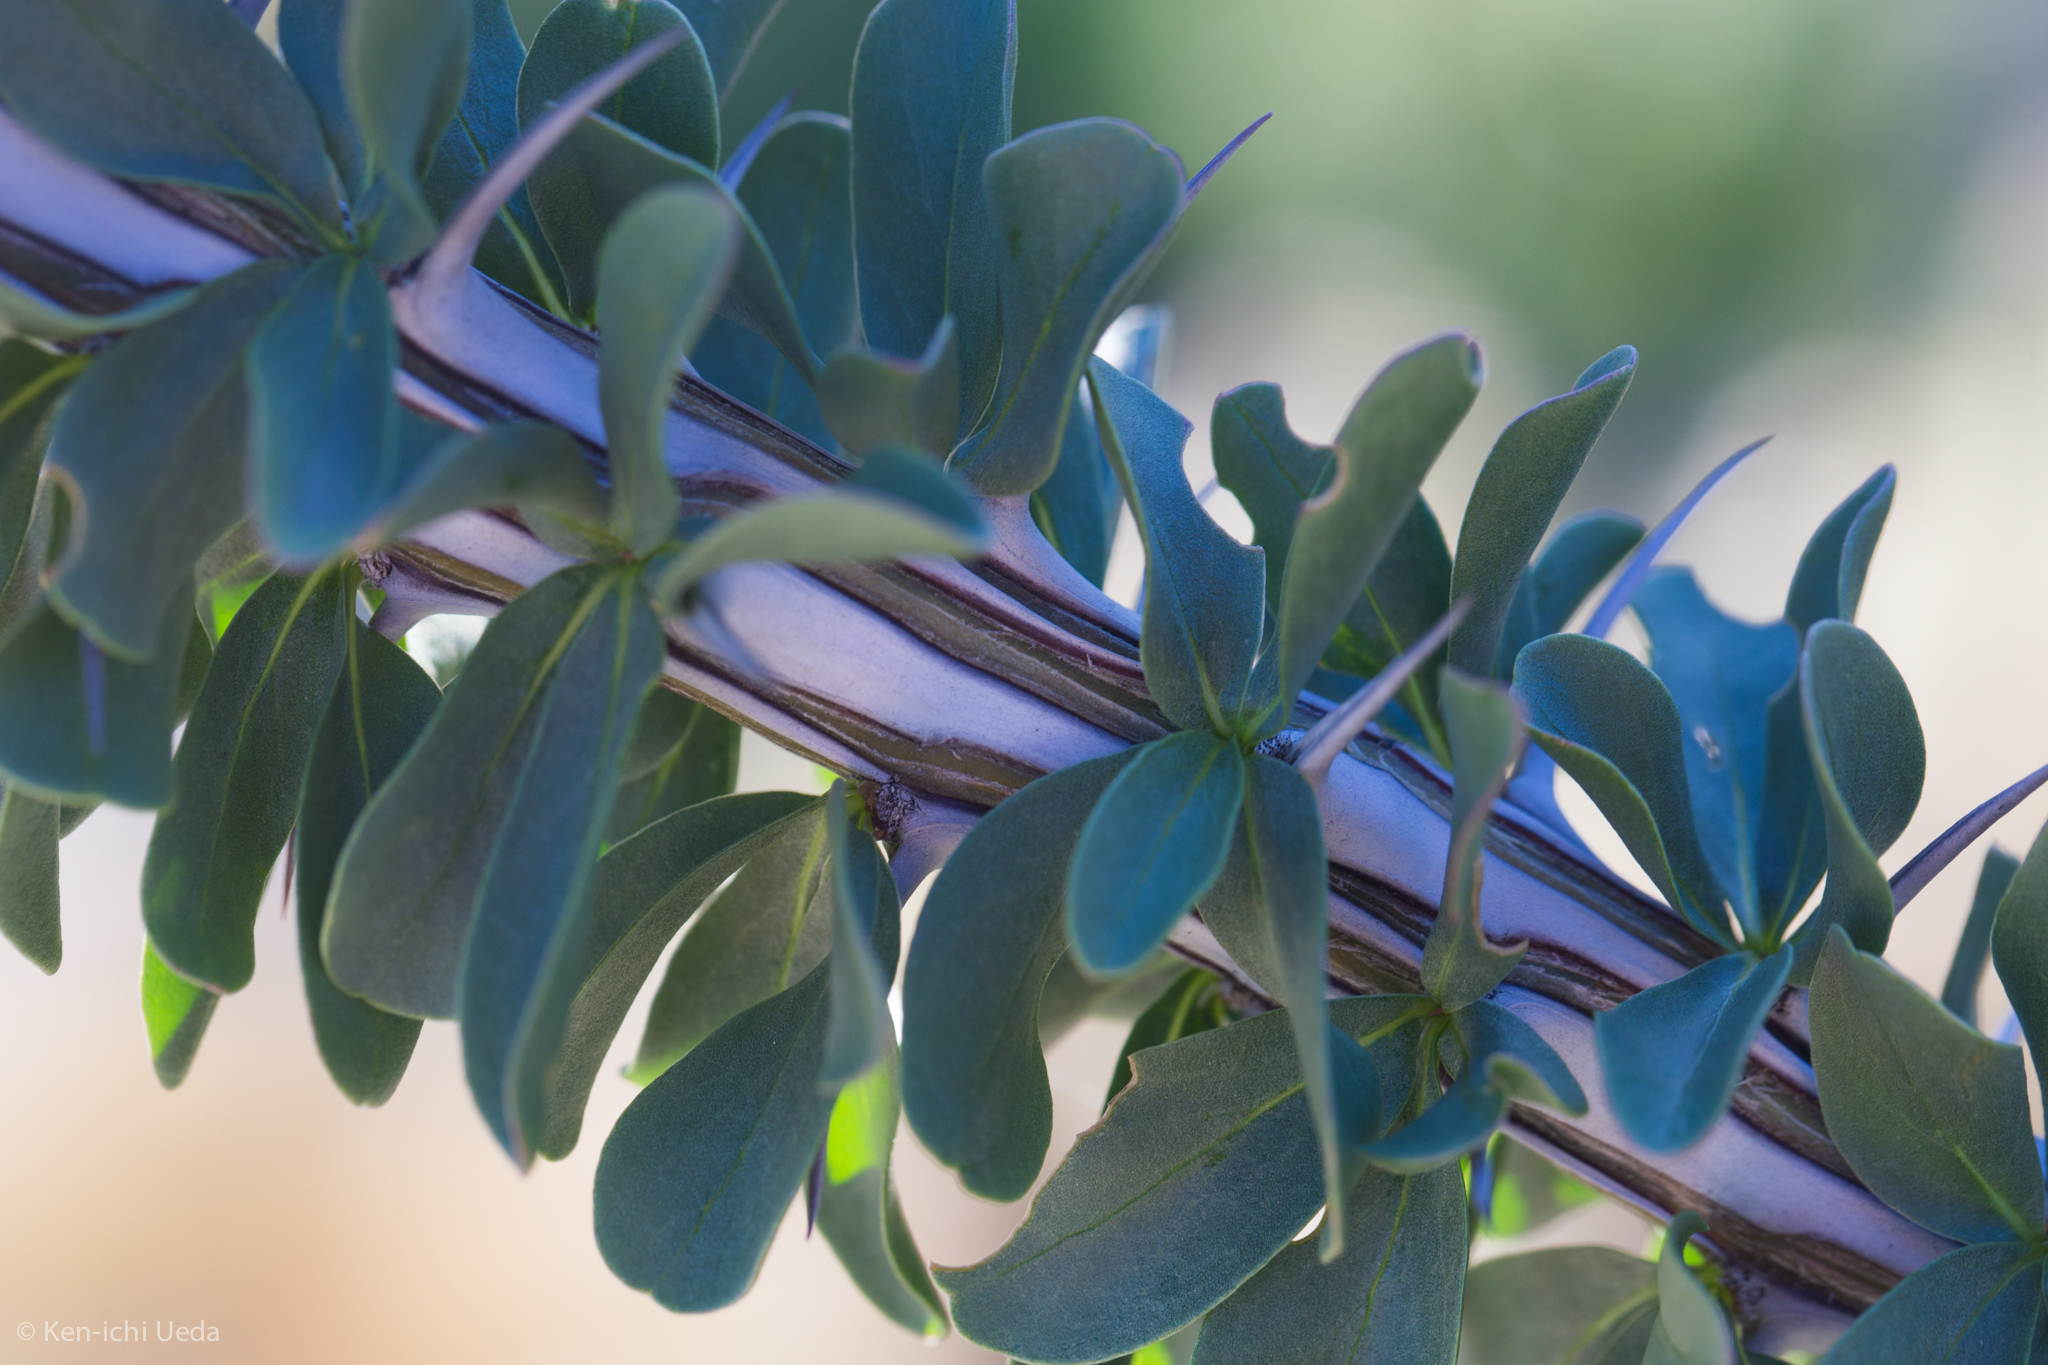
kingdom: Plantae
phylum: Tracheophyta
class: Magnoliopsida
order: Ericales
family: Fouquieriaceae
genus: Fouquieria
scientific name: Fouquieria splendens
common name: Vine-cactus
